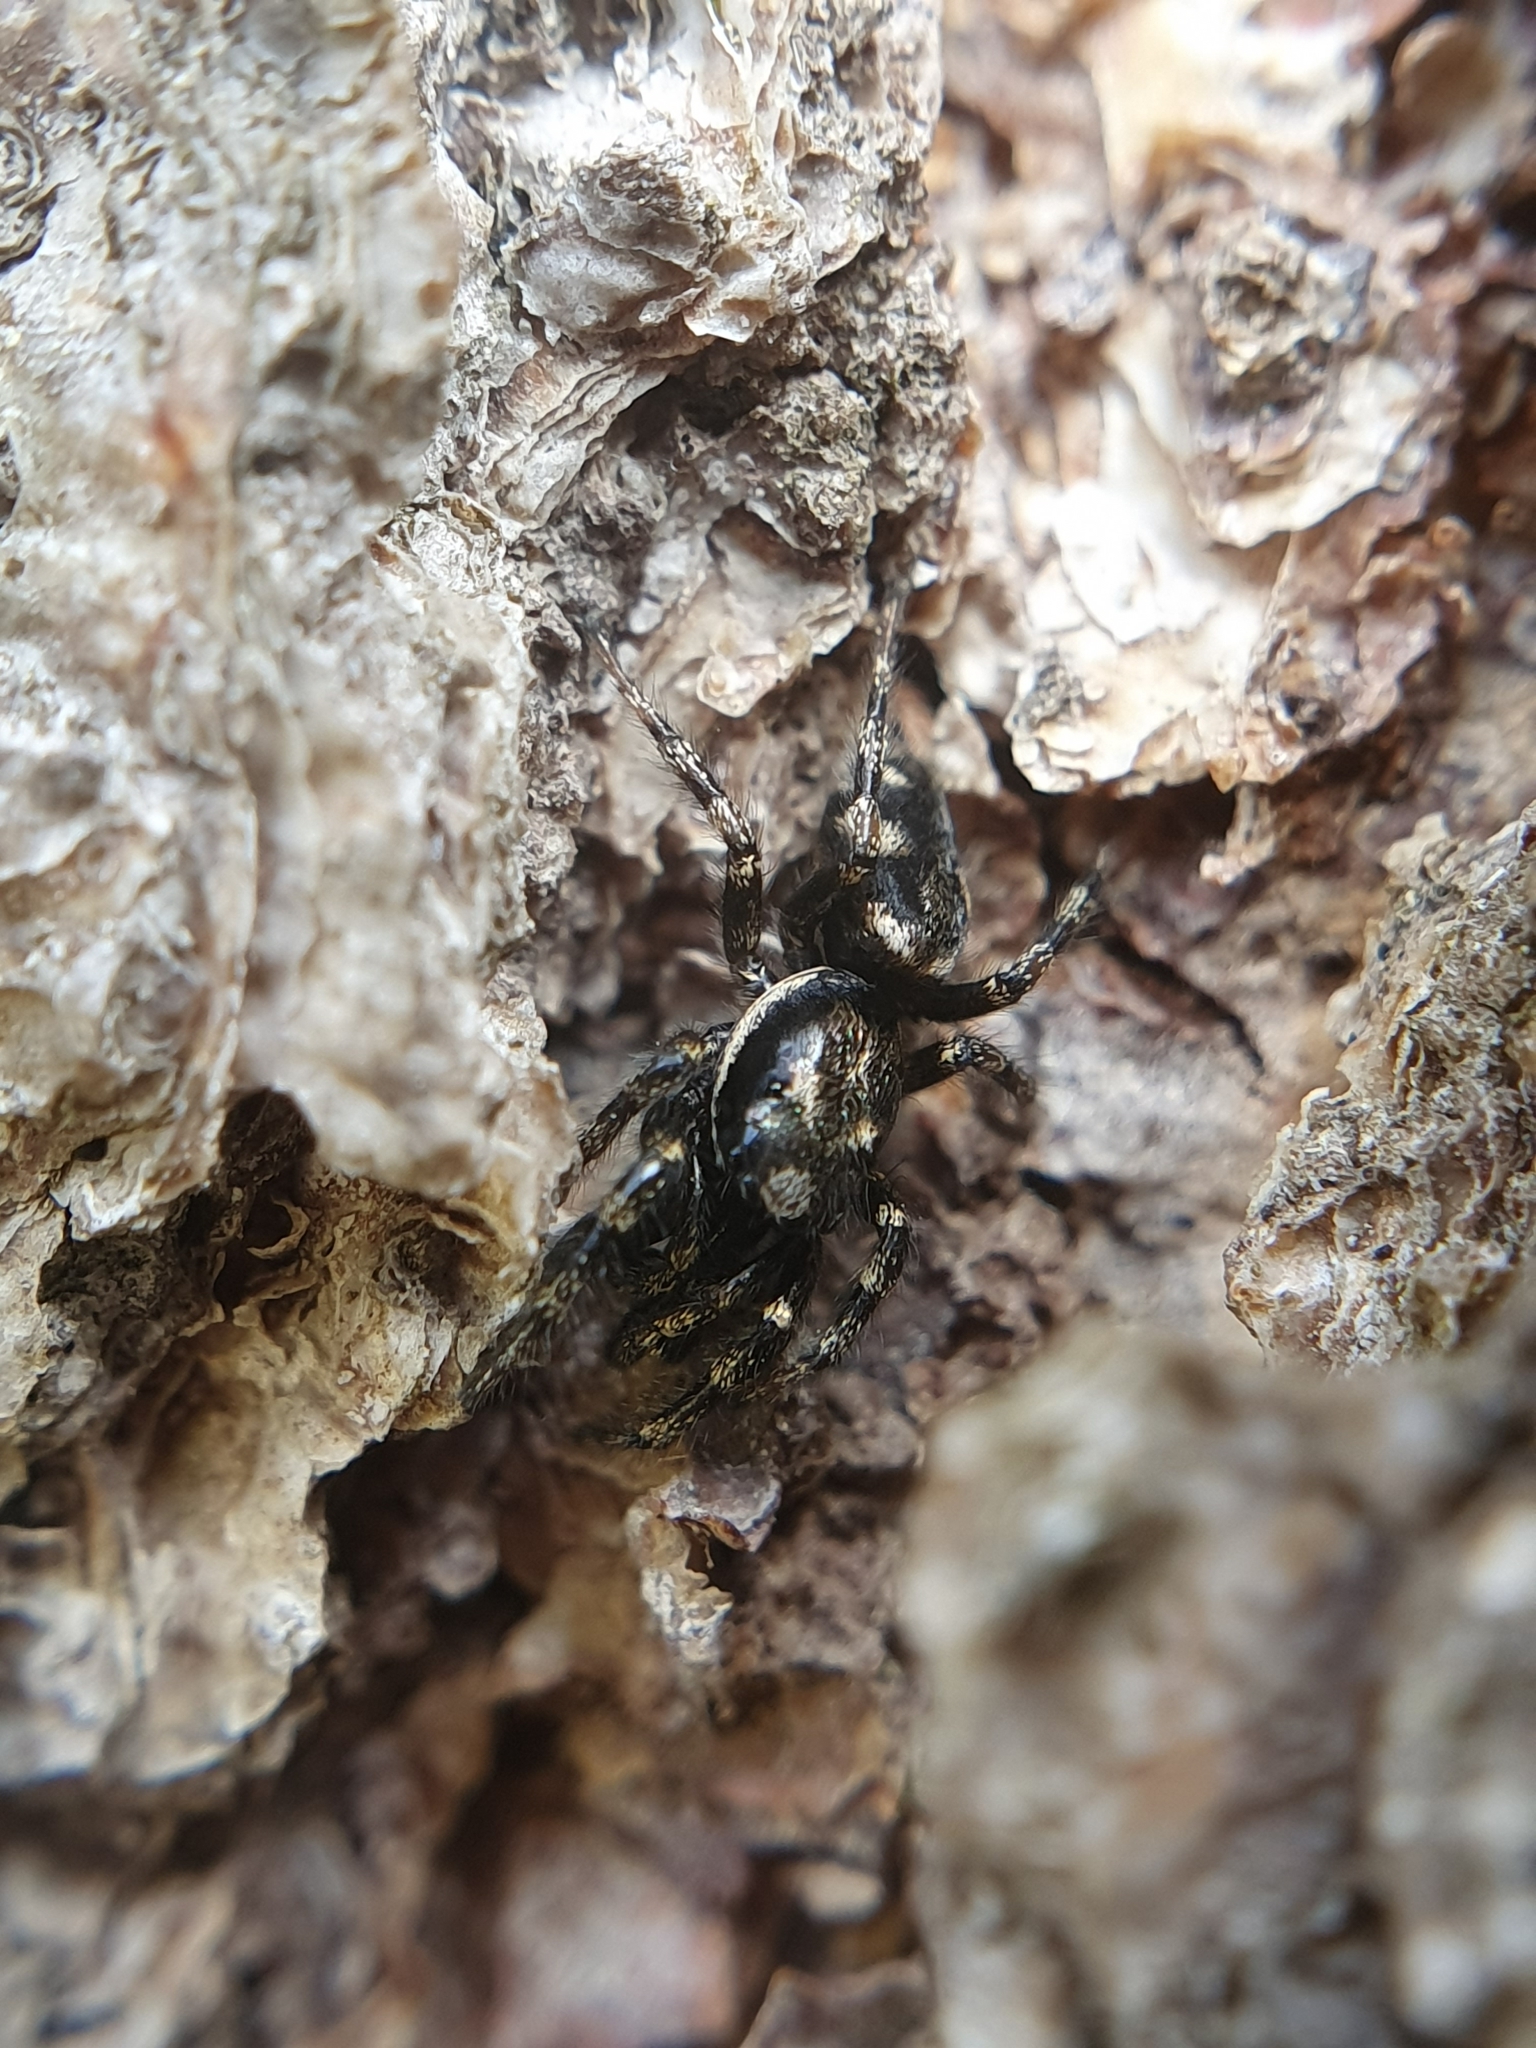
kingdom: Animalia
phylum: Arthropoda
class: Arachnida
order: Araneae
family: Salticidae
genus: Salticus
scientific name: Salticus scenicus
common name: Zebra jumper
